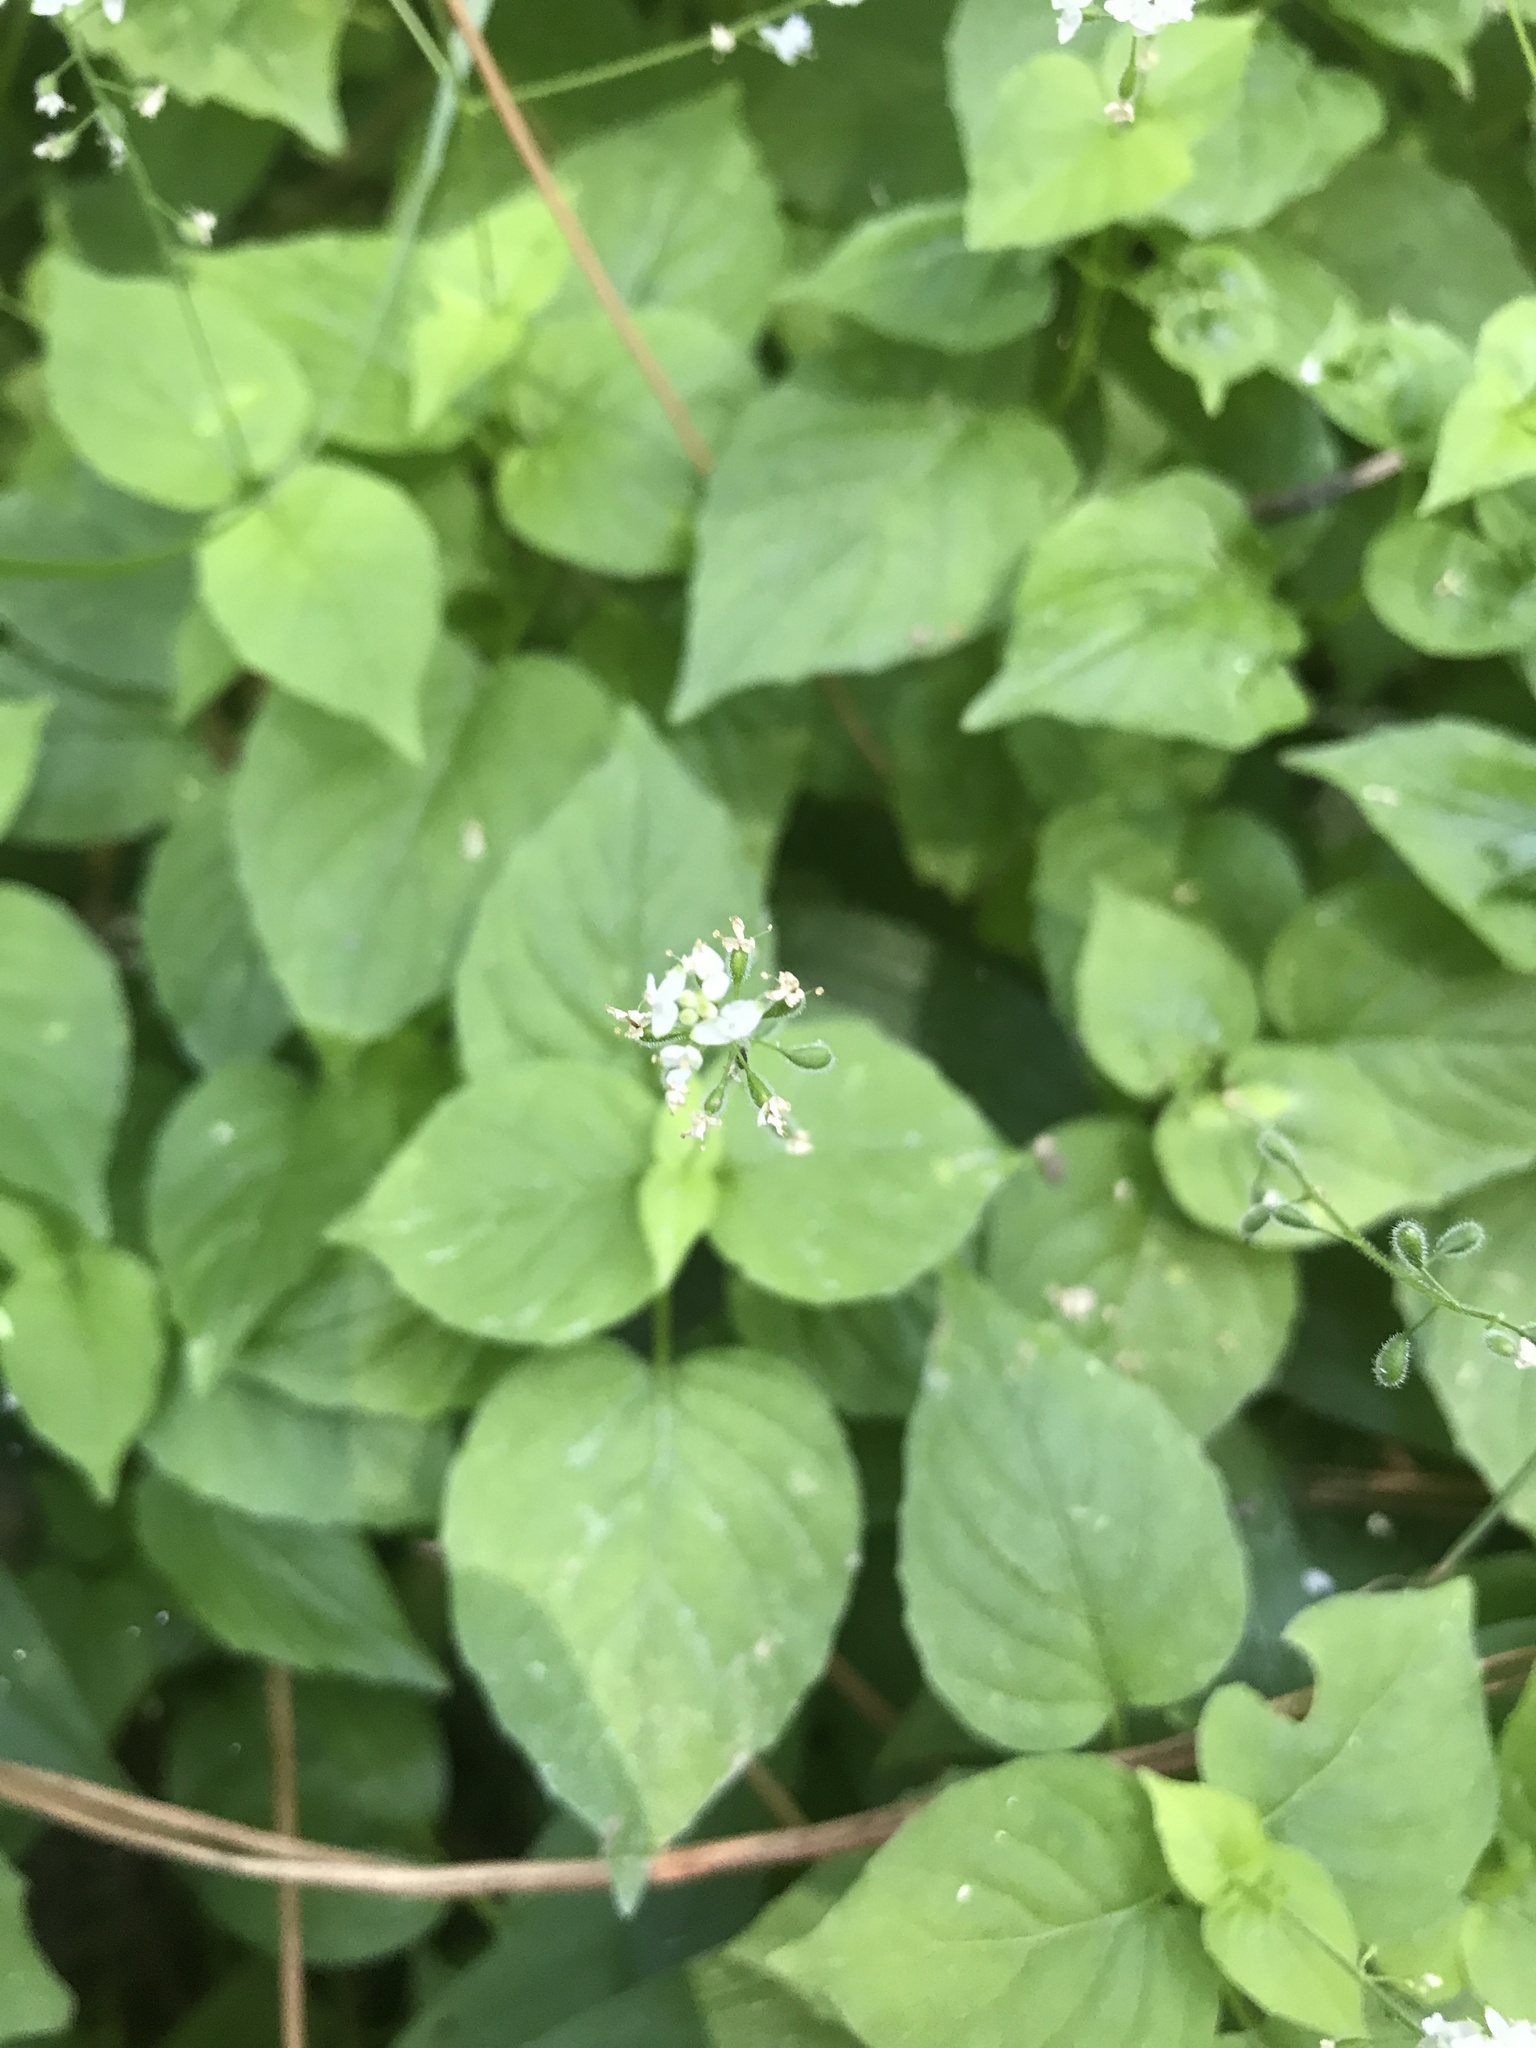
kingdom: Plantae
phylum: Tracheophyta
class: Magnoliopsida
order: Myrtales
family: Onagraceae
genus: Circaea
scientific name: Circaea alpina
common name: Alpine enchanter's-nightshade
